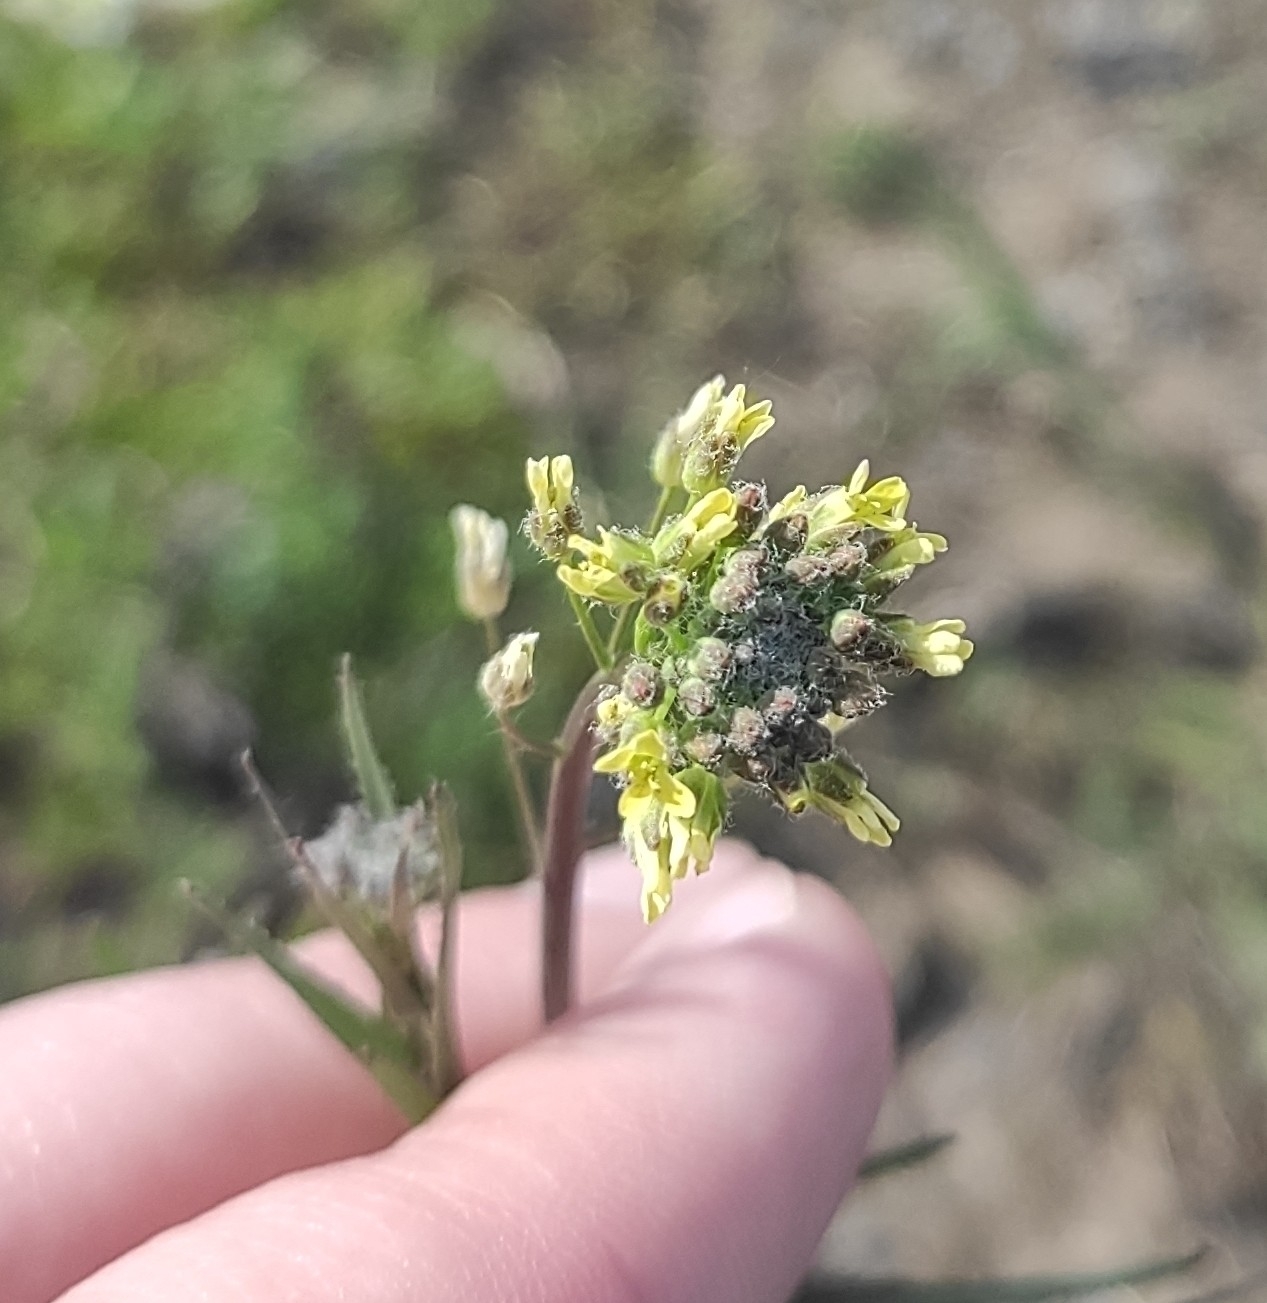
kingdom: Plantae
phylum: Tracheophyta
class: Magnoliopsida
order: Brassicales
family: Brassicaceae
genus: Camelina
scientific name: Camelina microcarpa
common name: Lesser gold-of-pleasure
